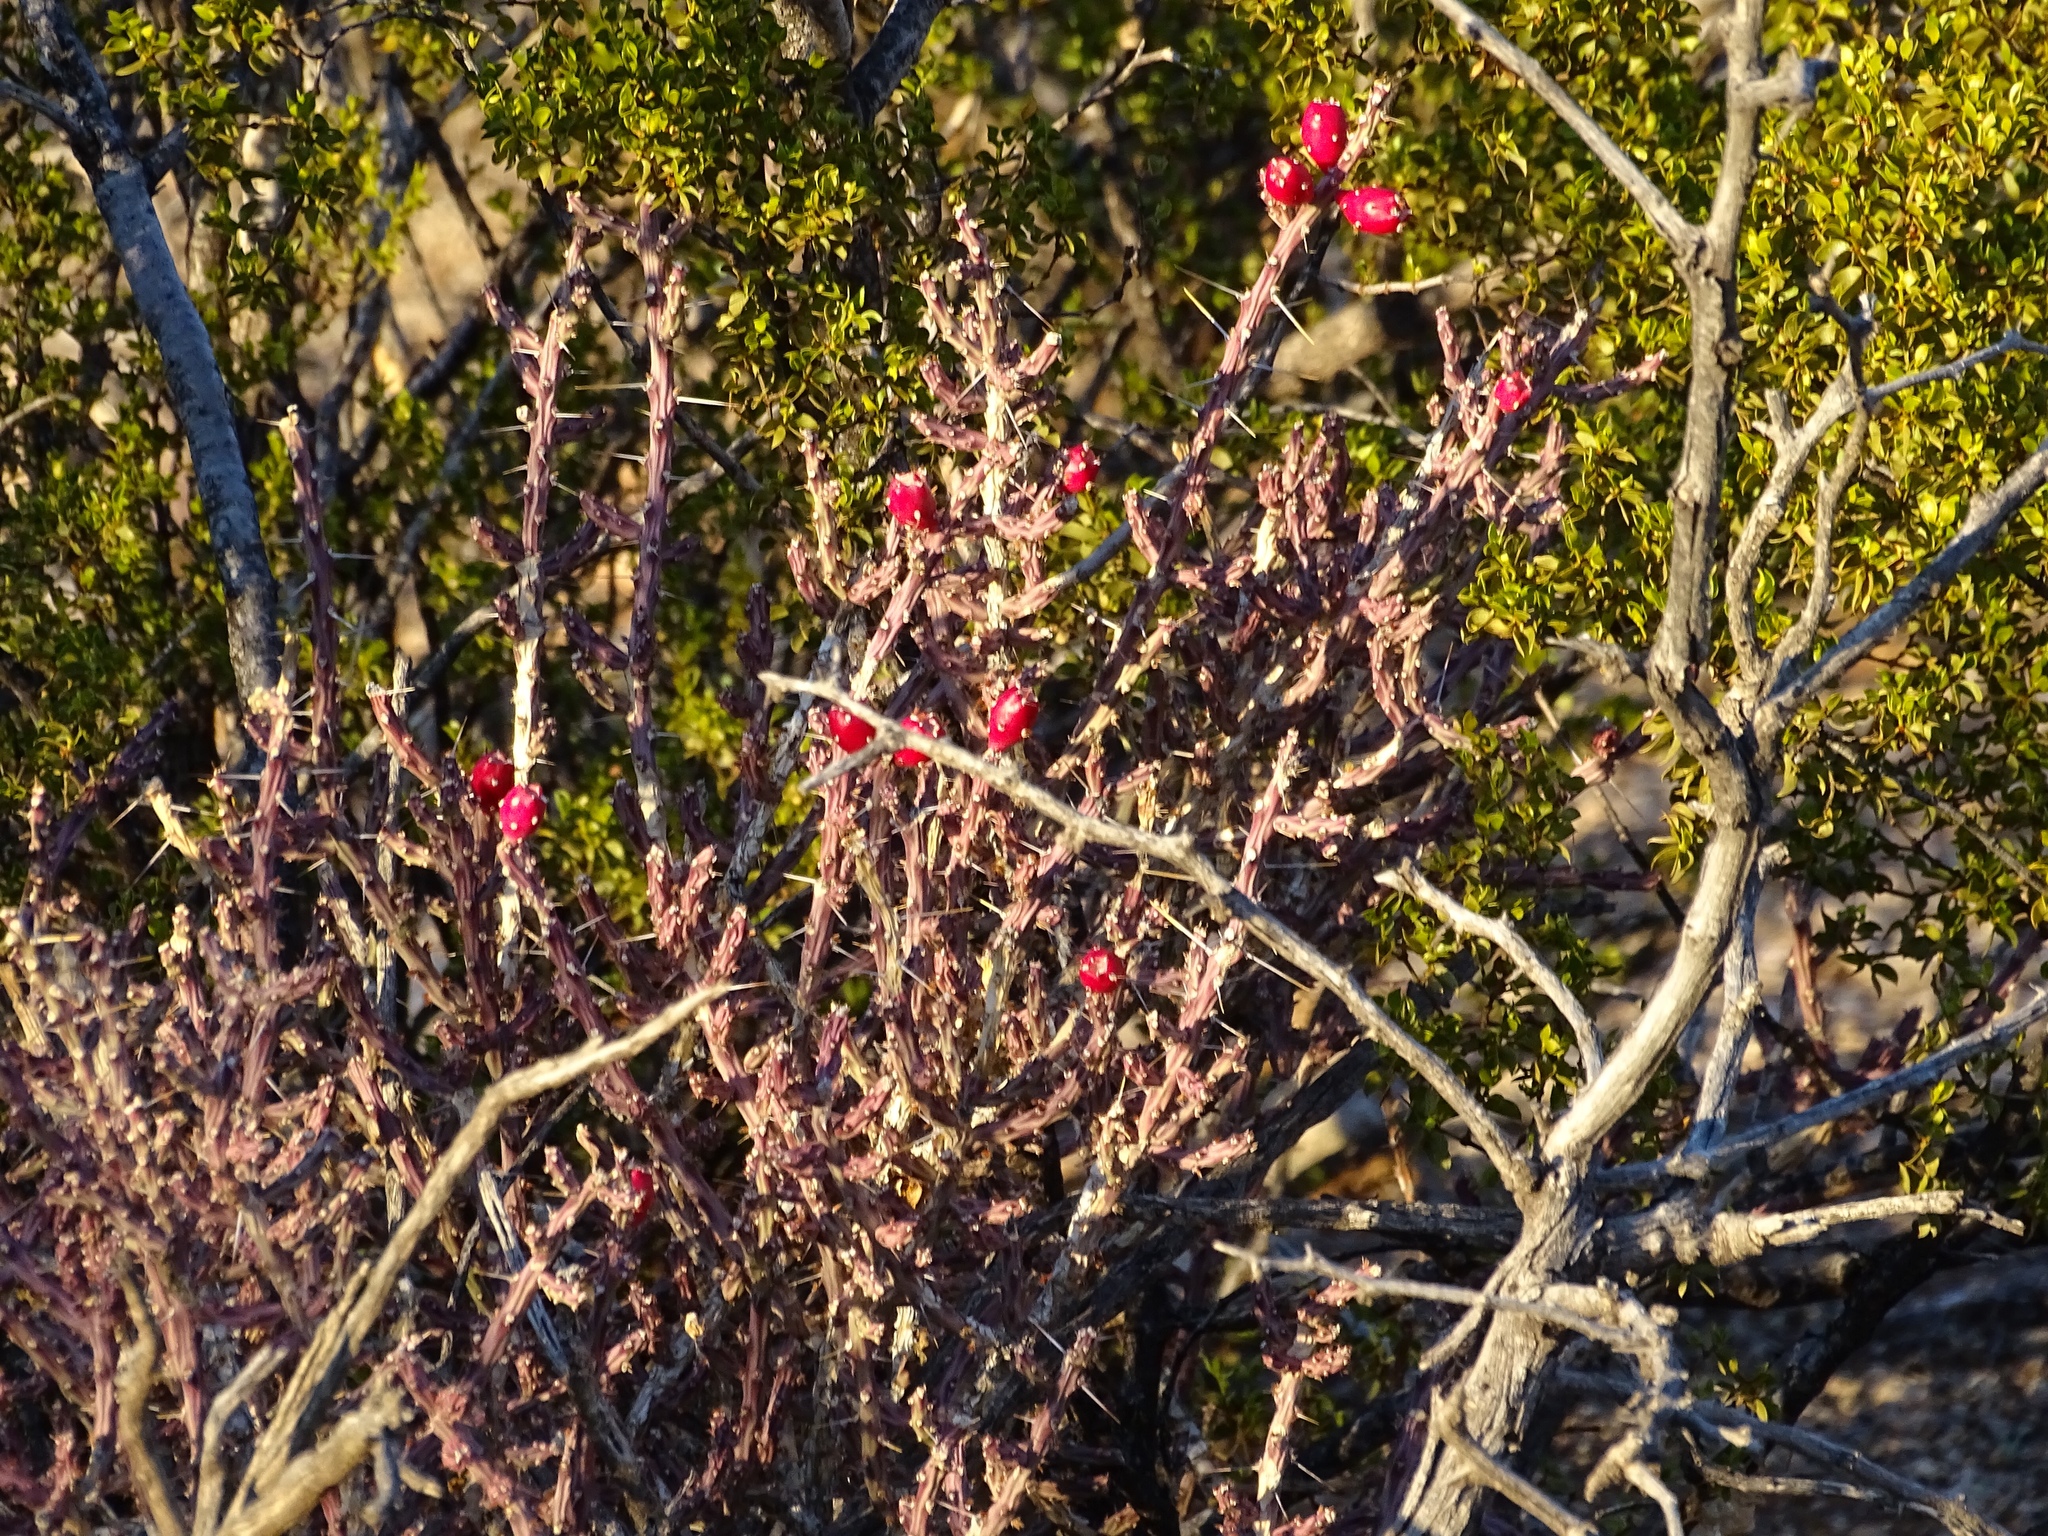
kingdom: Plantae
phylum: Tracheophyta
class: Magnoliopsida
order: Caryophyllales
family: Cactaceae
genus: Cylindropuntia
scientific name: Cylindropuntia leptocaulis
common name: Christmas cactus
